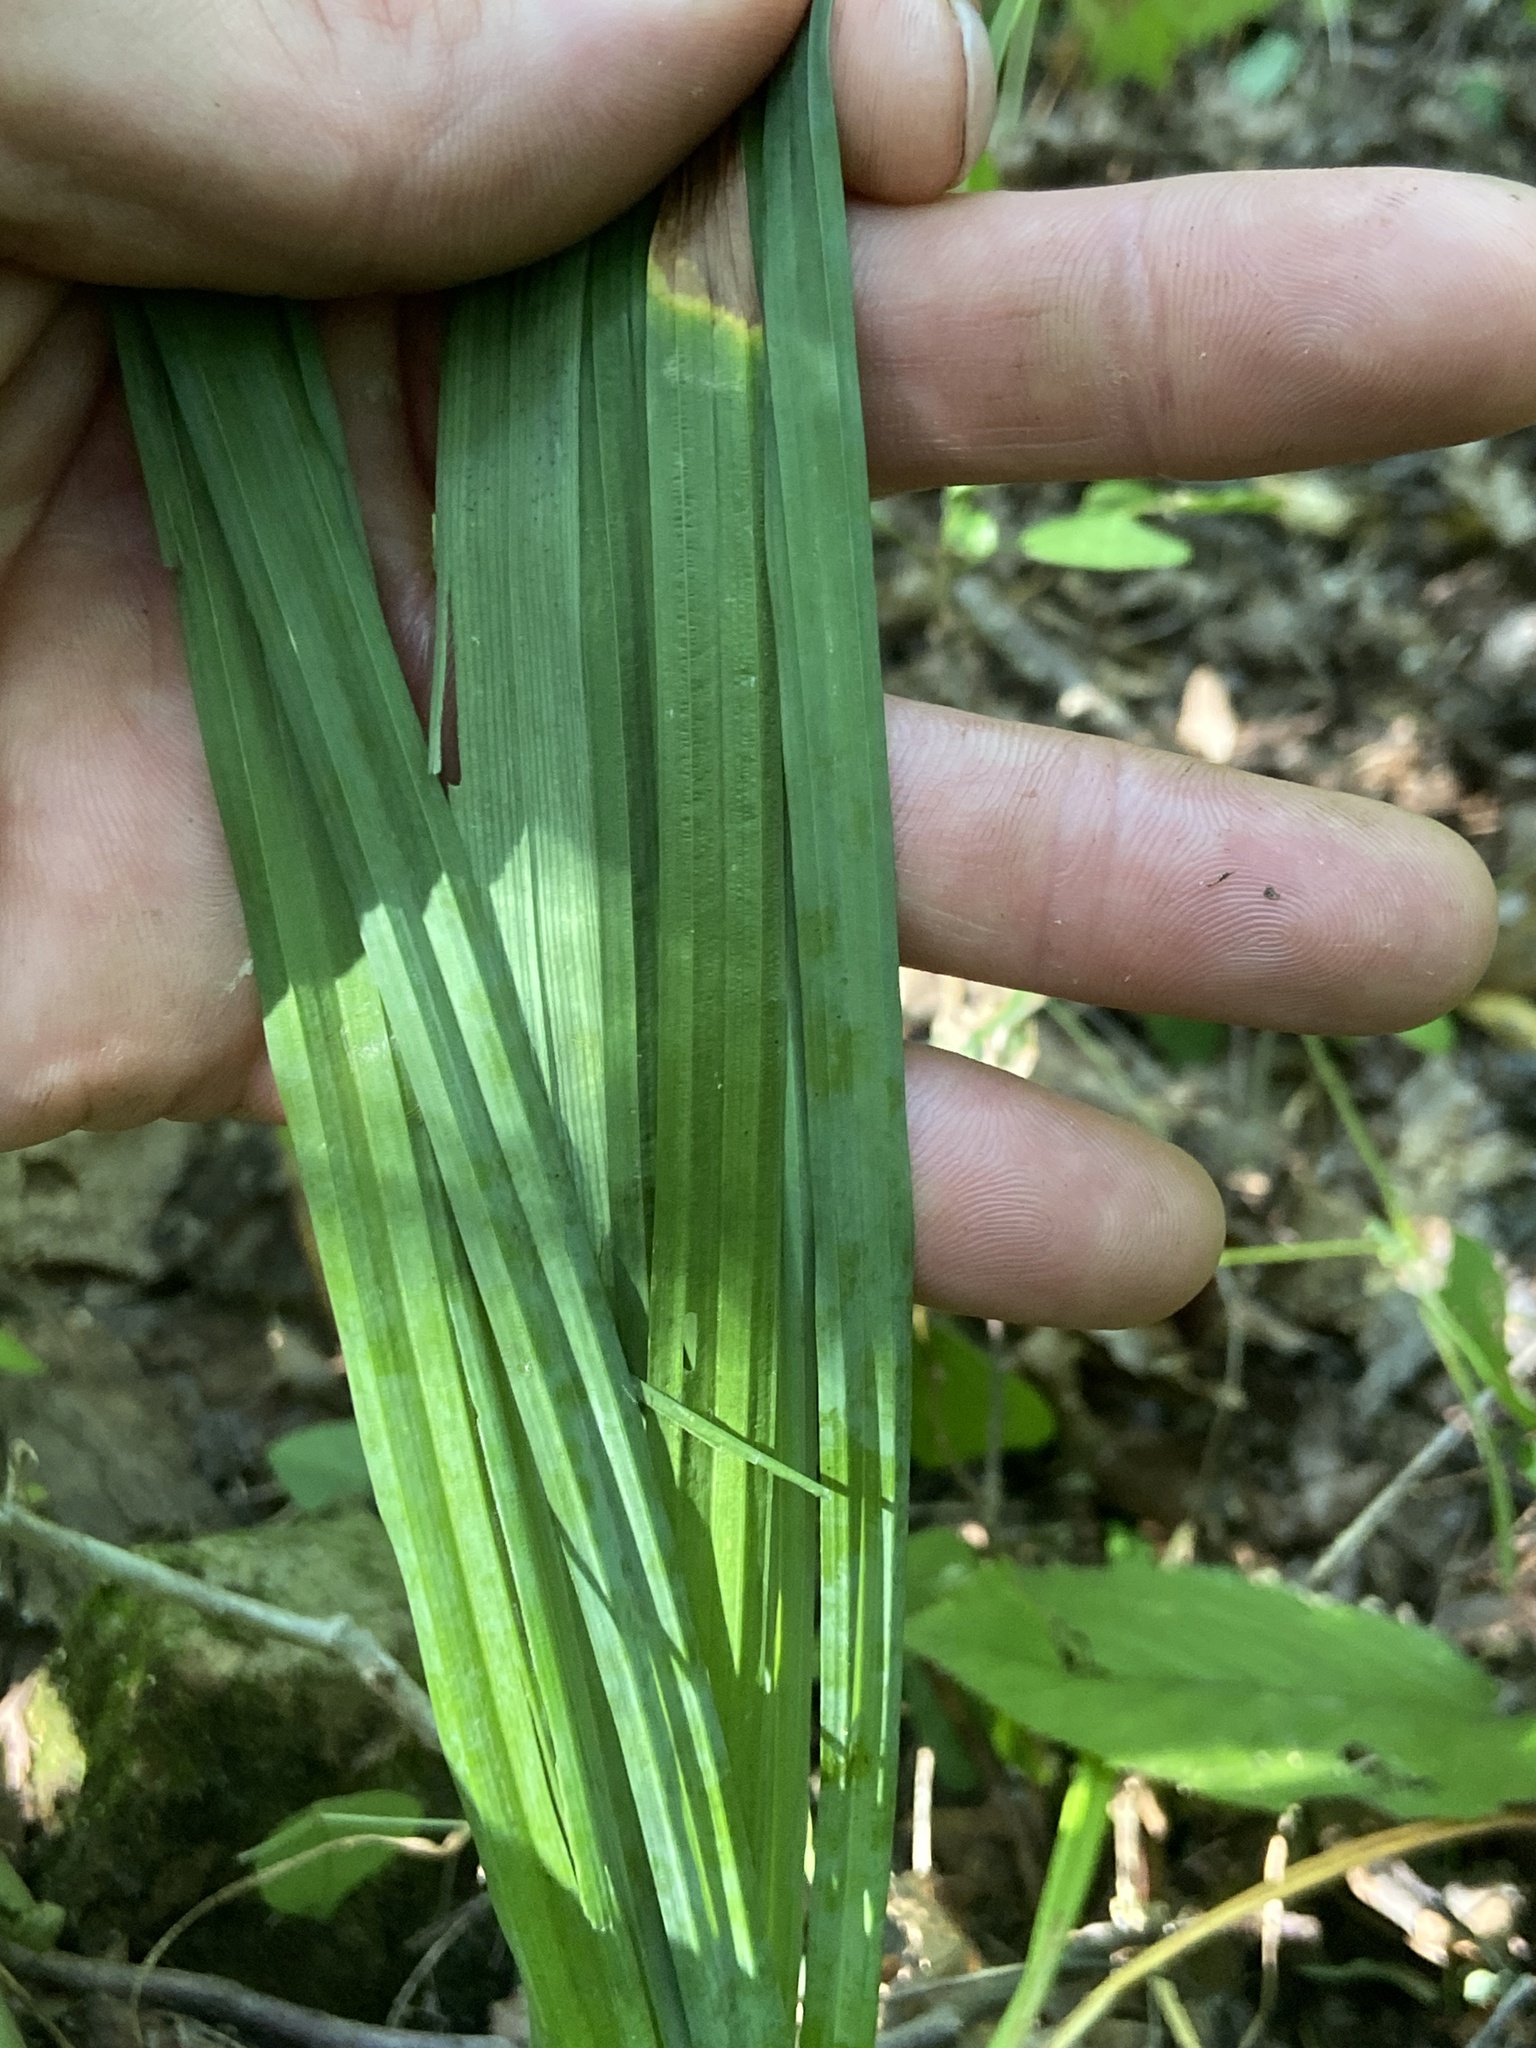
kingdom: Plantae
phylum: Tracheophyta
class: Liliopsida
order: Poales
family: Cyperaceae
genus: Carex
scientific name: Carex purpurifera
